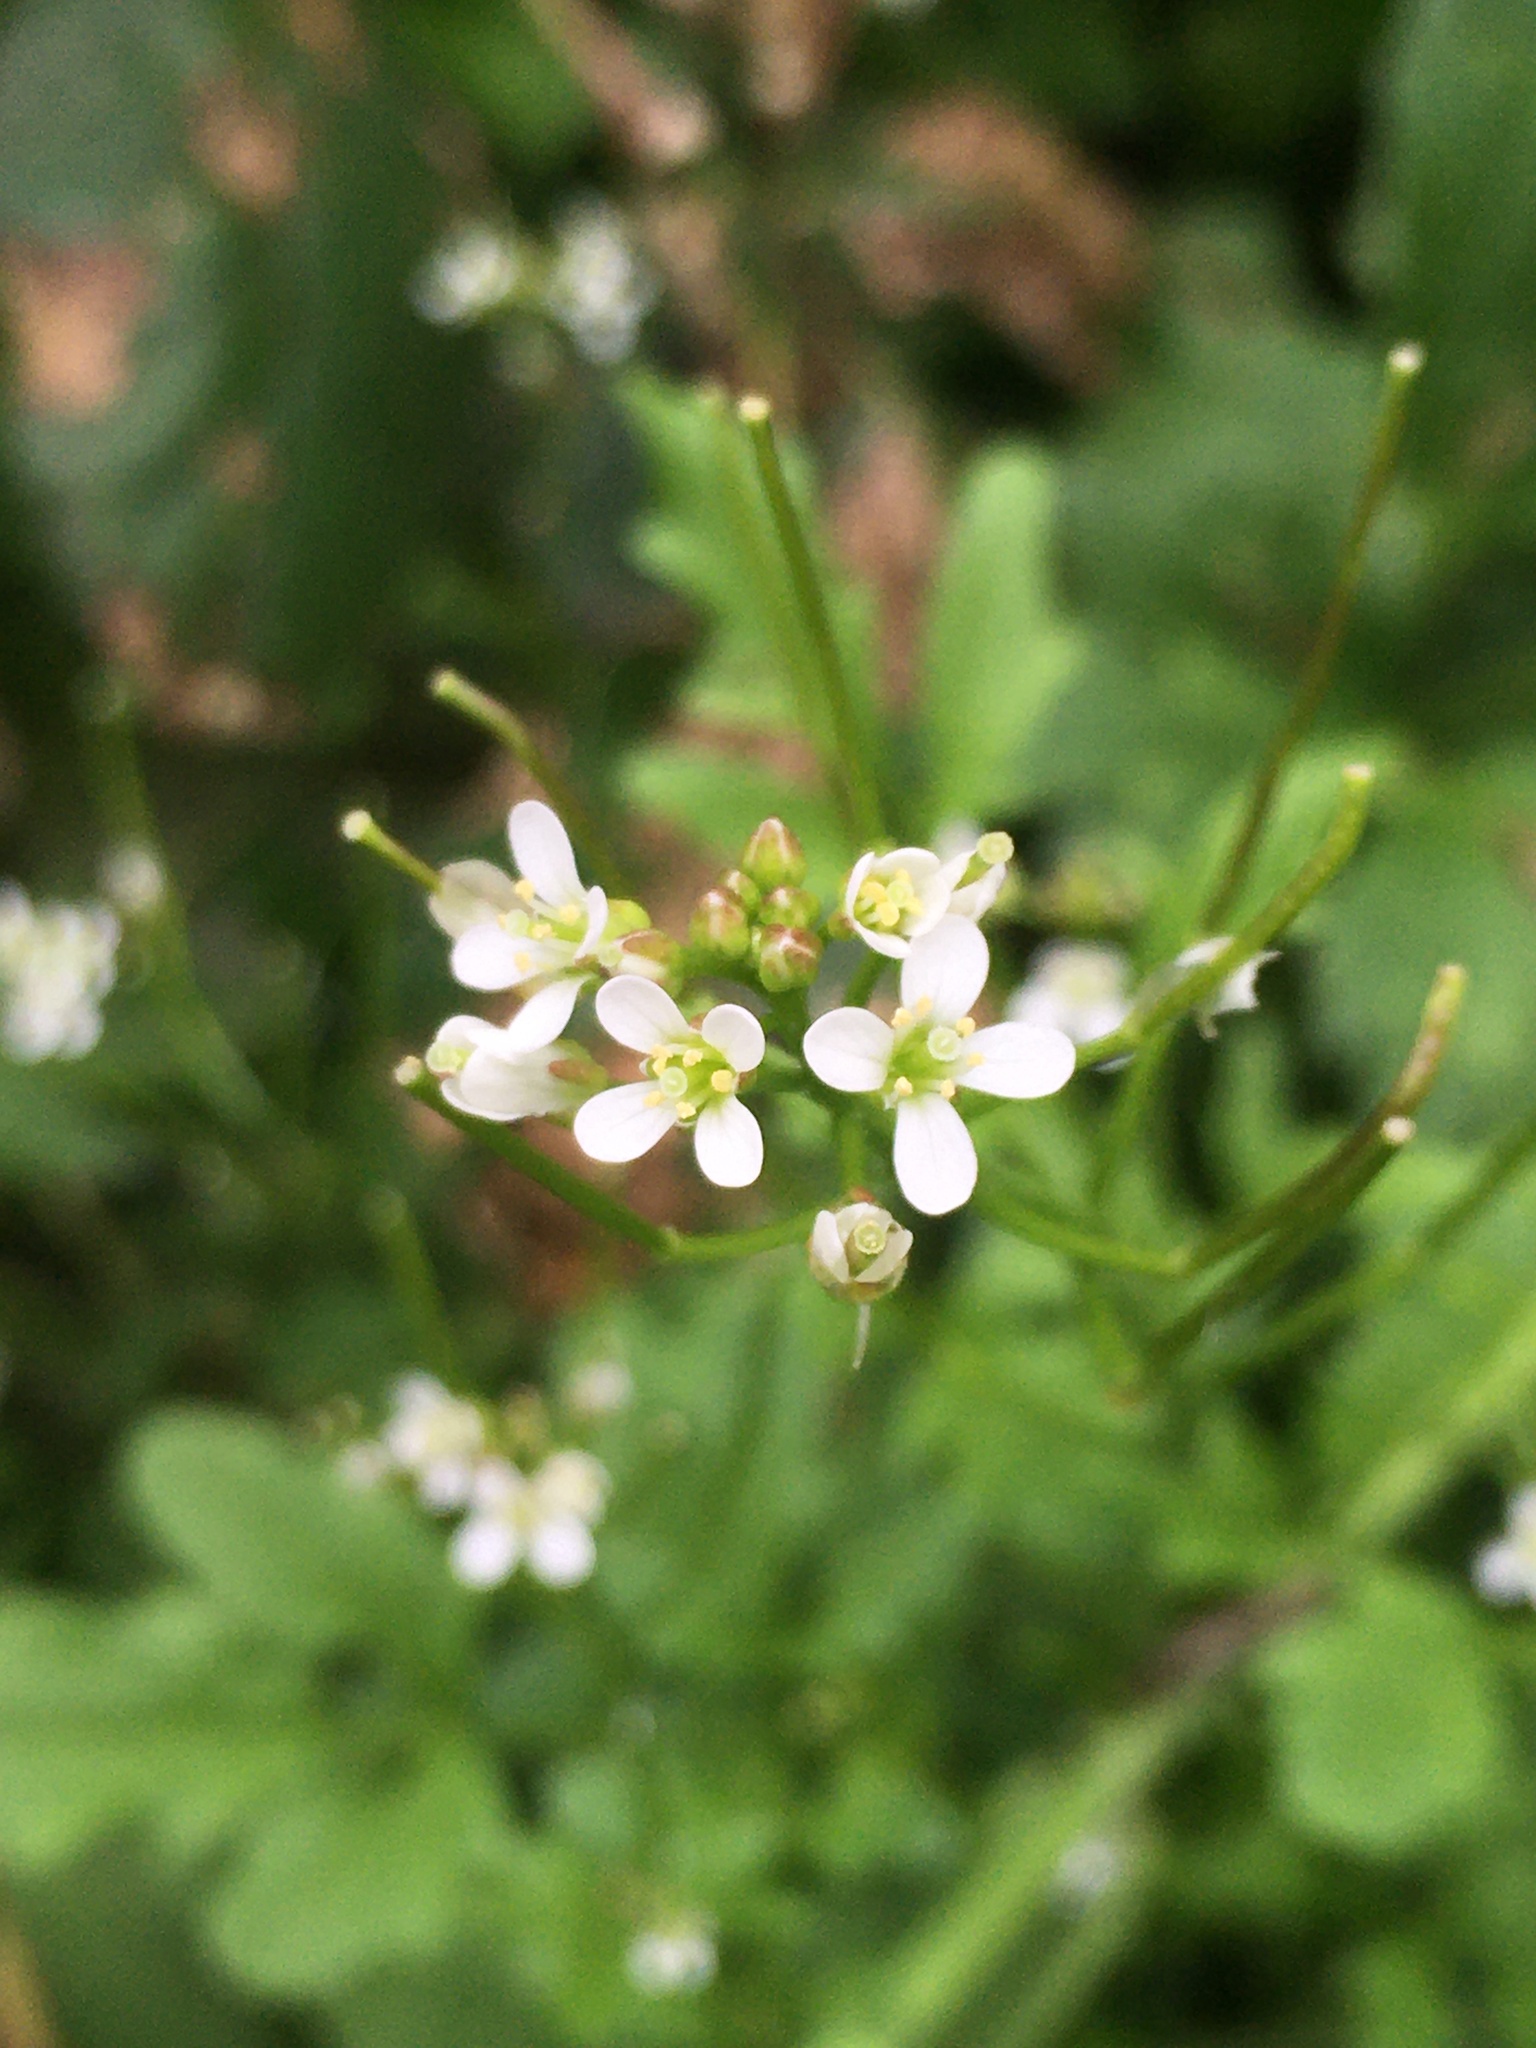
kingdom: Plantae
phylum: Tracheophyta
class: Magnoliopsida
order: Brassicales
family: Brassicaceae
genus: Cardamine
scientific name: Cardamine flexuosa
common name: Woodland bittercress
